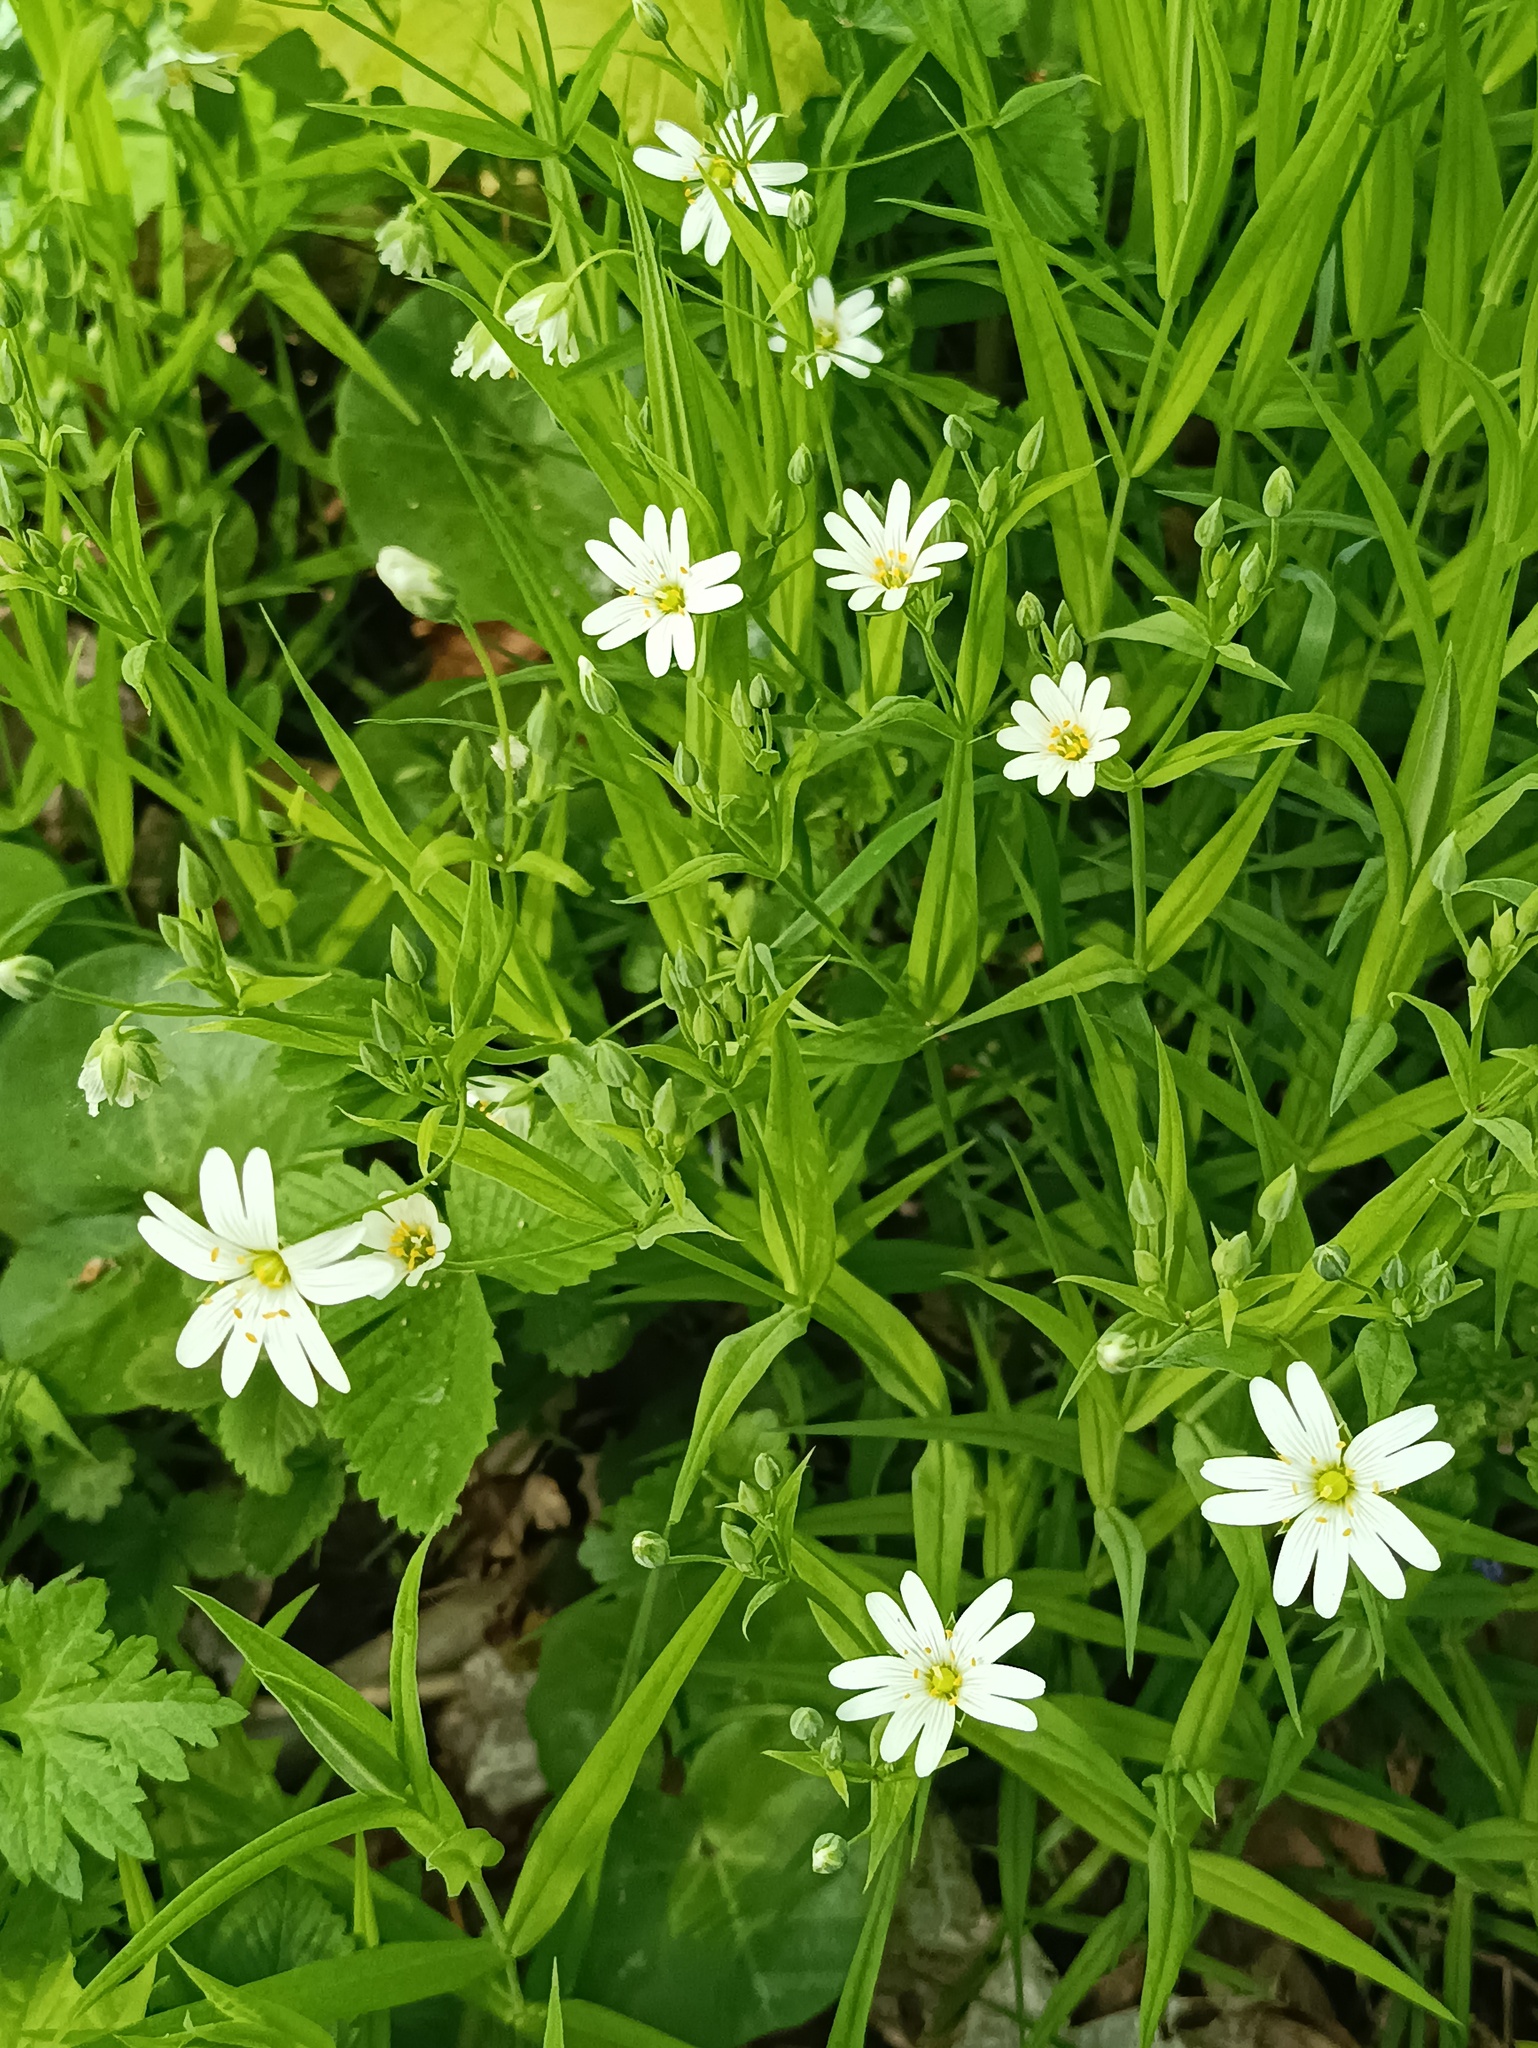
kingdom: Plantae
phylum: Tracheophyta
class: Magnoliopsida
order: Caryophyllales
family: Caryophyllaceae
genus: Rabelera
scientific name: Rabelera holostea
